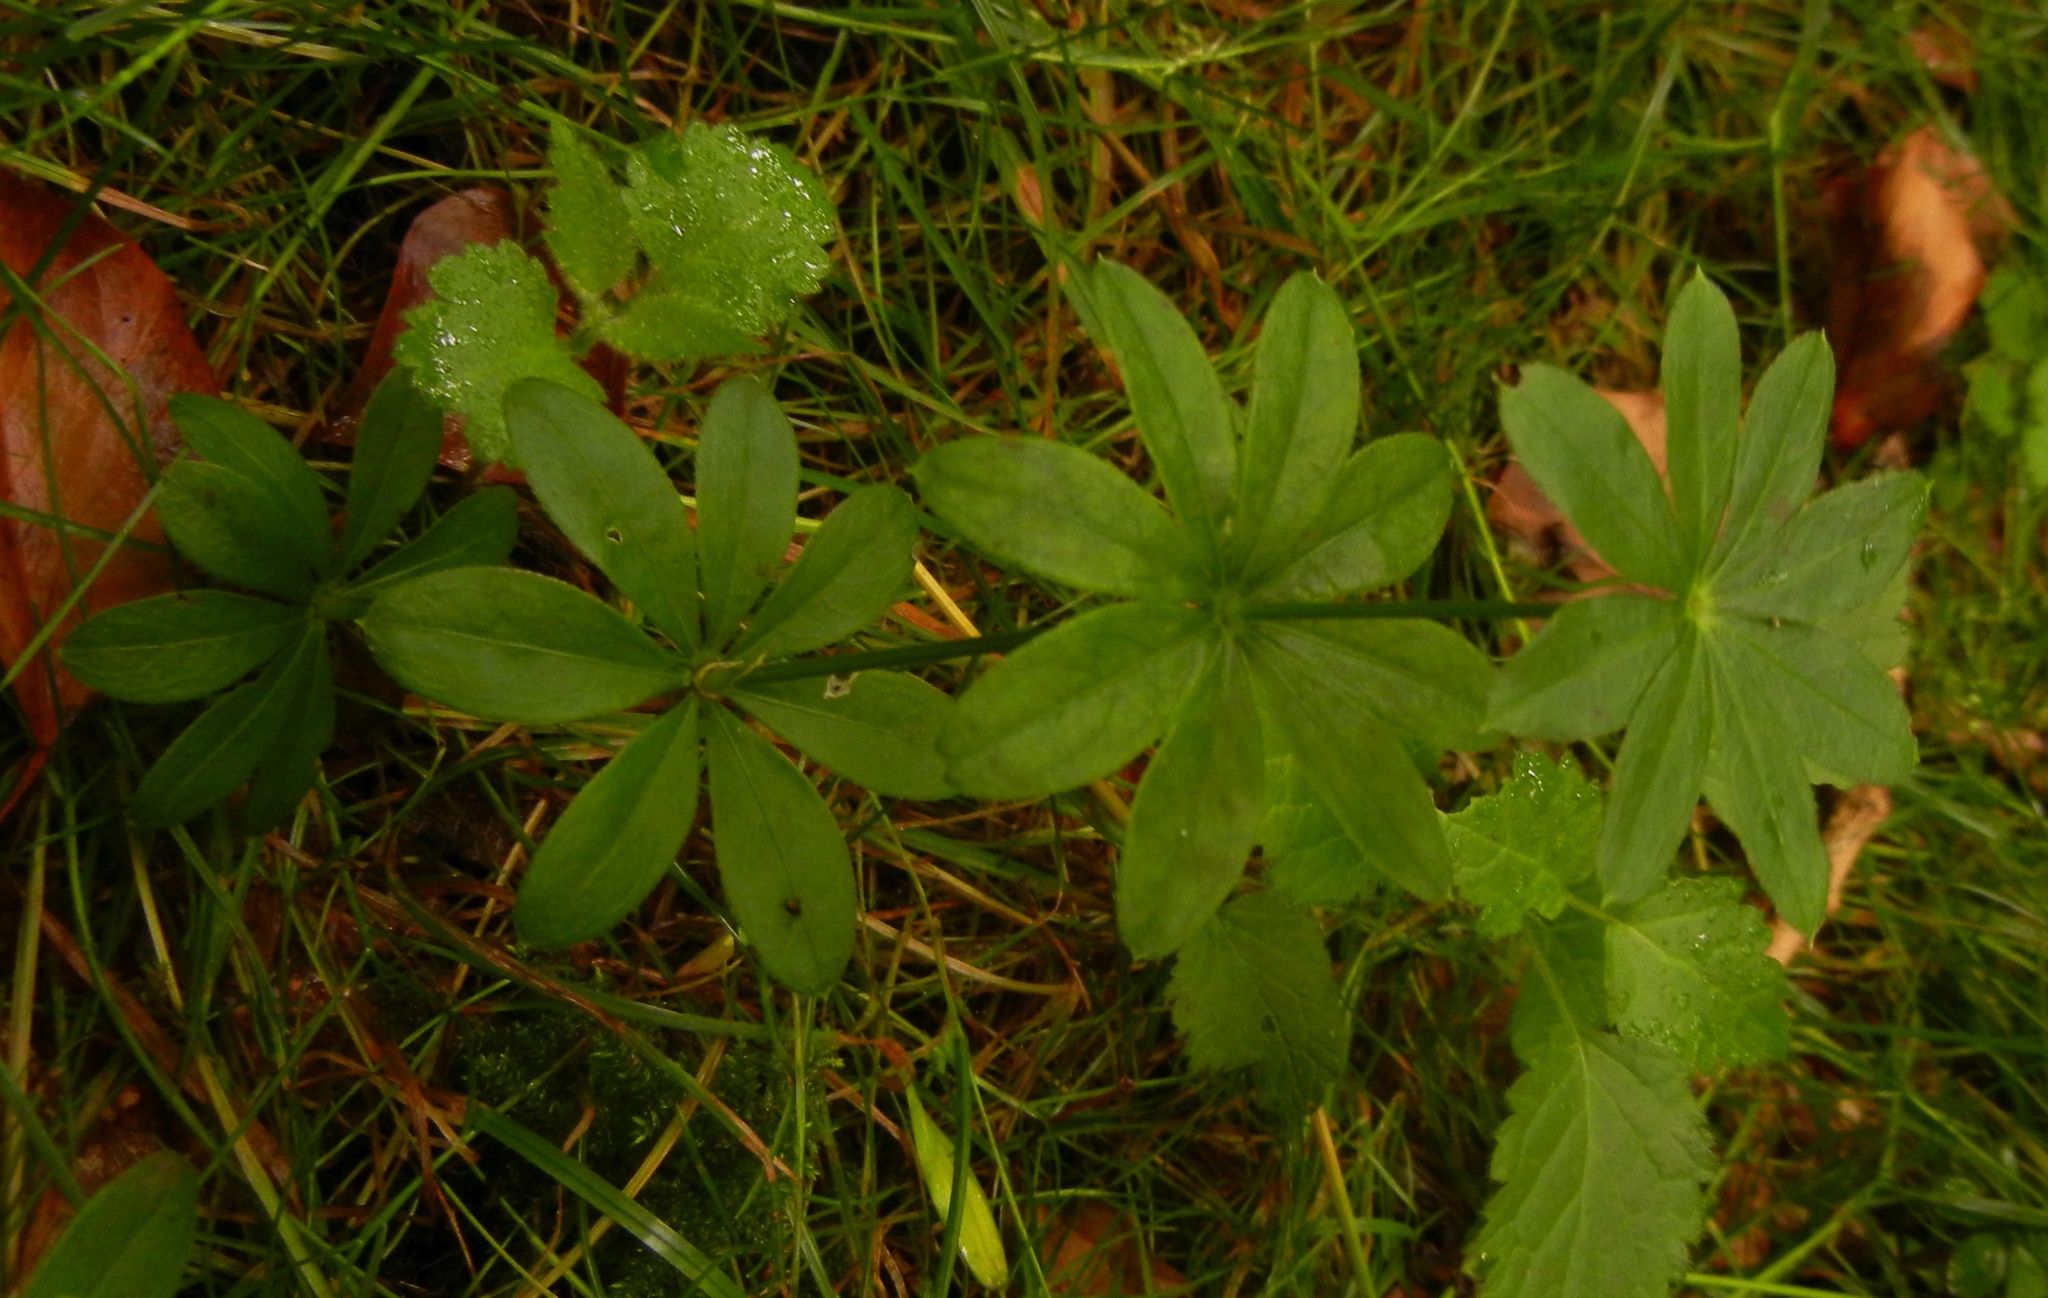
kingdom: Plantae
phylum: Tracheophyta
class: Magnoliopsida
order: Gentianales
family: Rubiaceae
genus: Galium
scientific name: Galium odoratum
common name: Sweet woodruff
